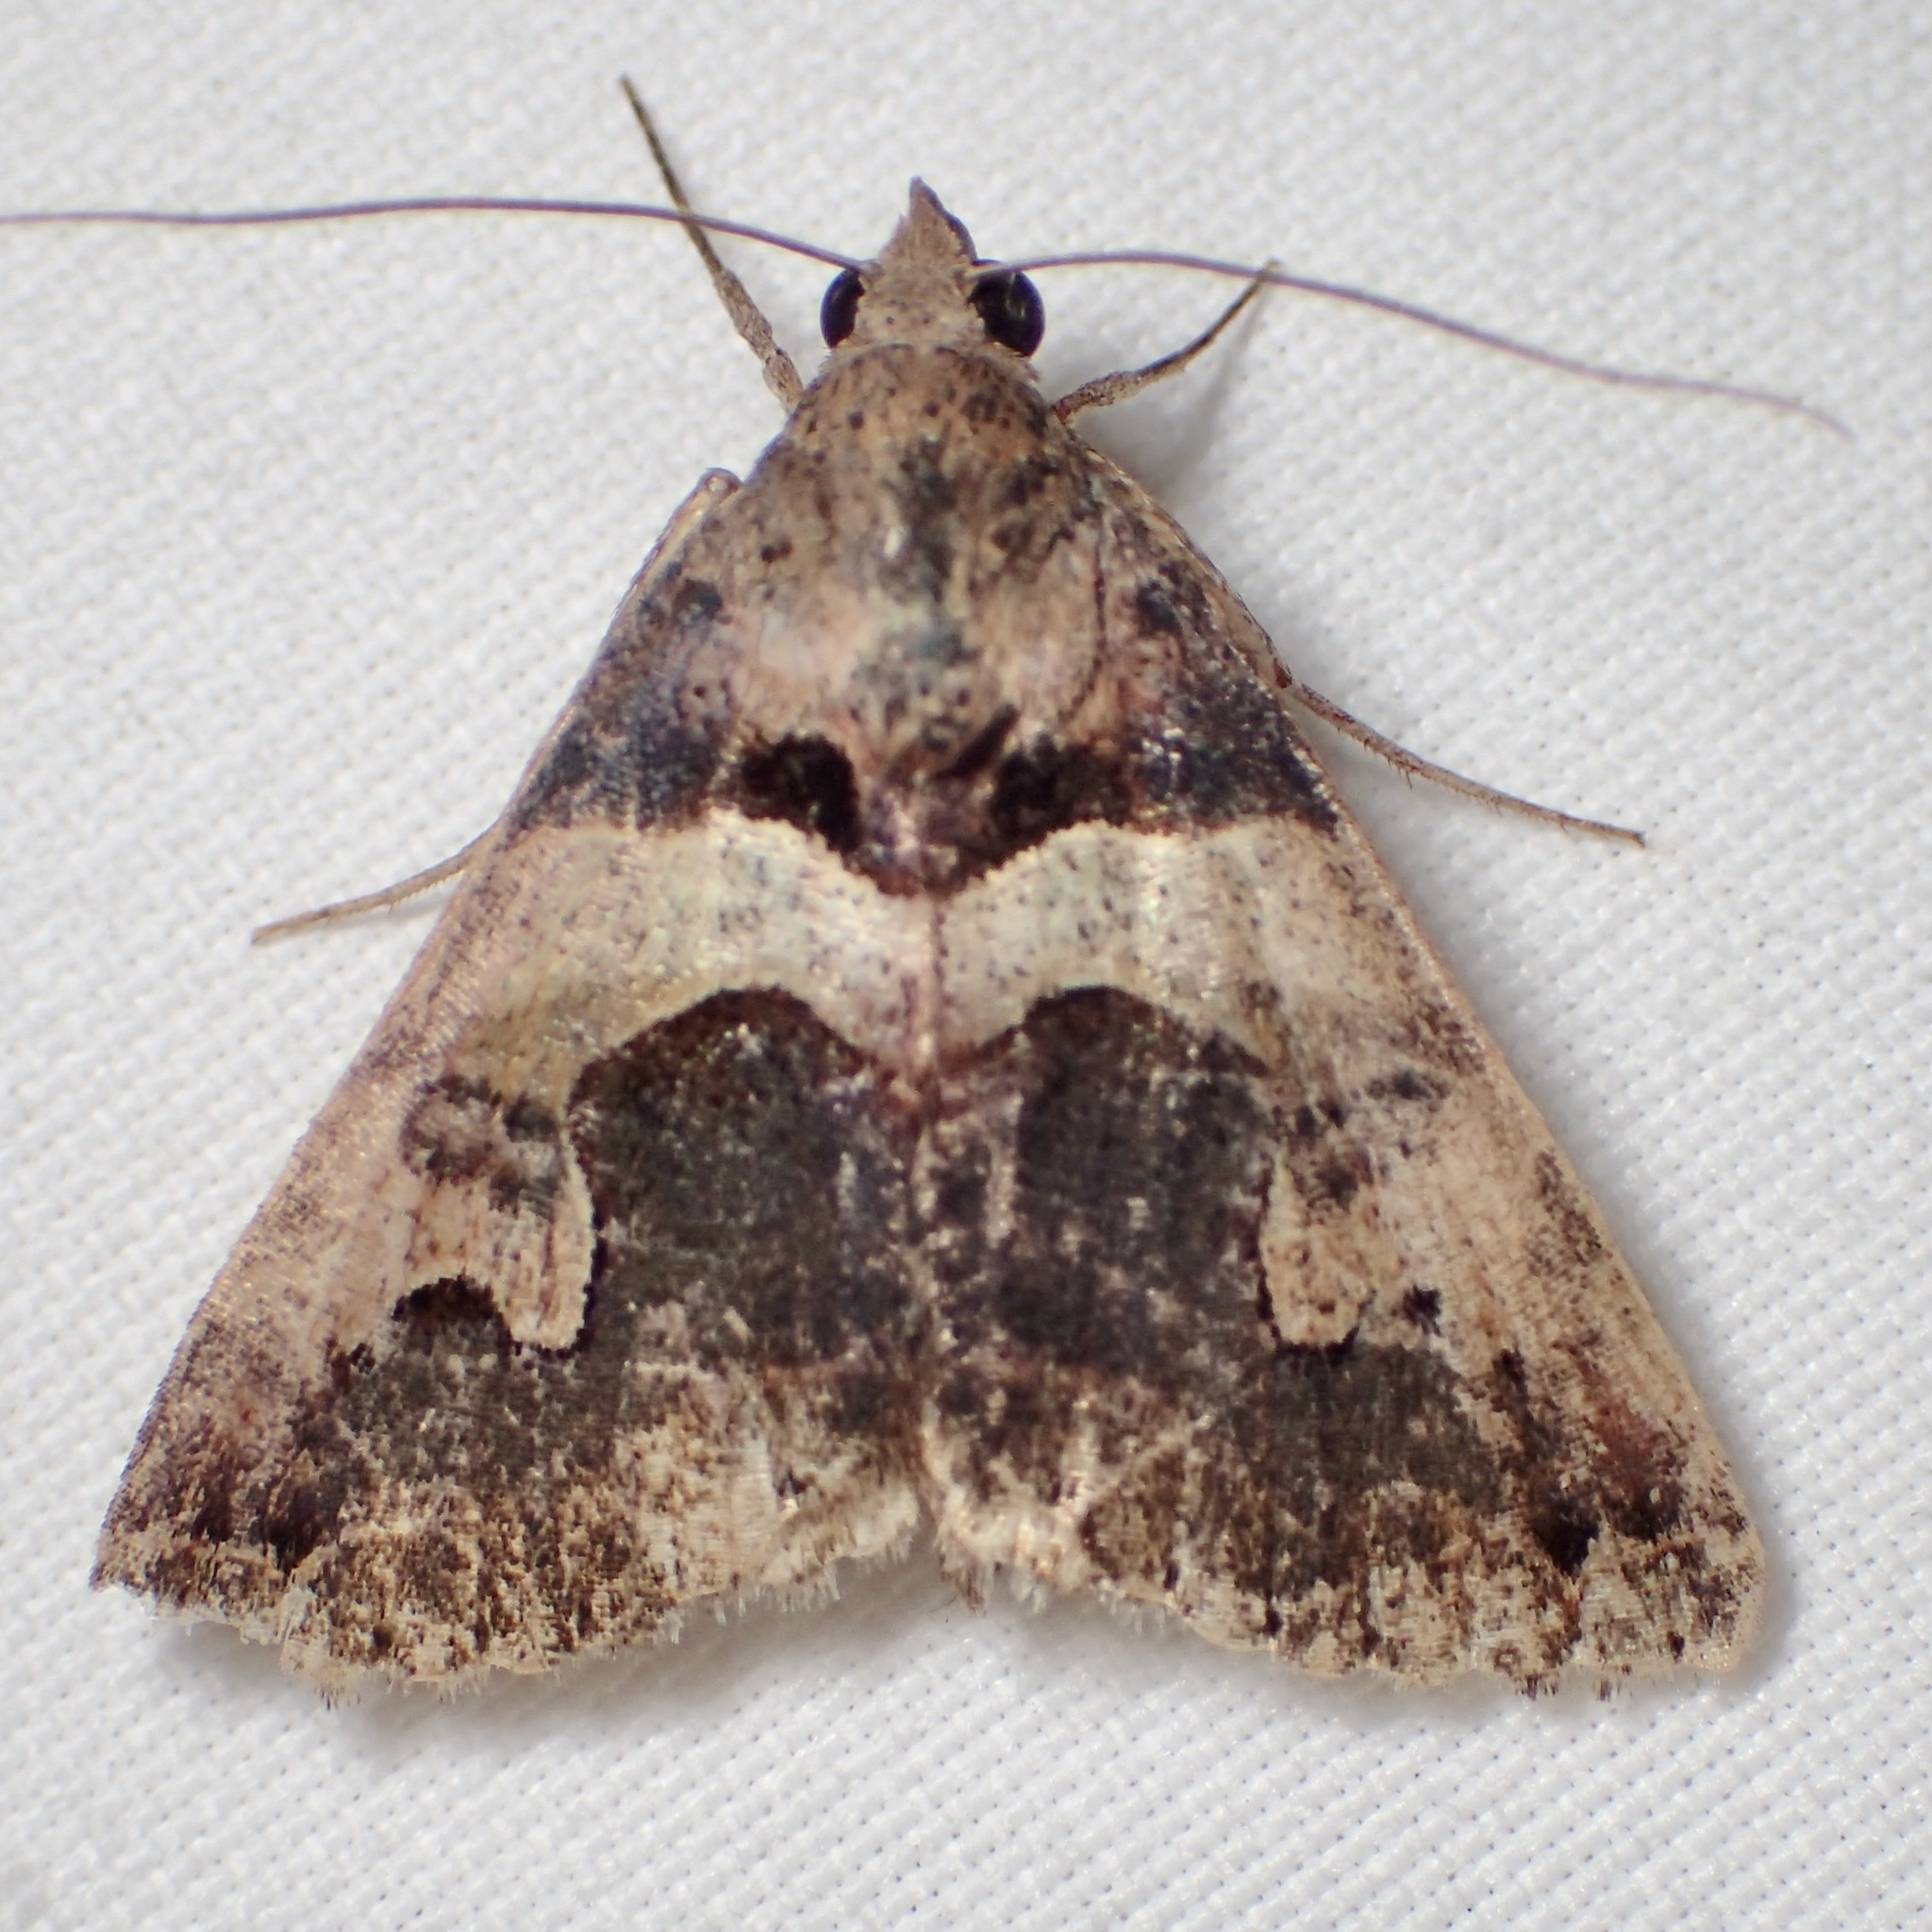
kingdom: Animalia
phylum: Arthropoda
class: Insecta
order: Lepidoptera
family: Erebidae
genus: Panula
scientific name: Panula inconstans
